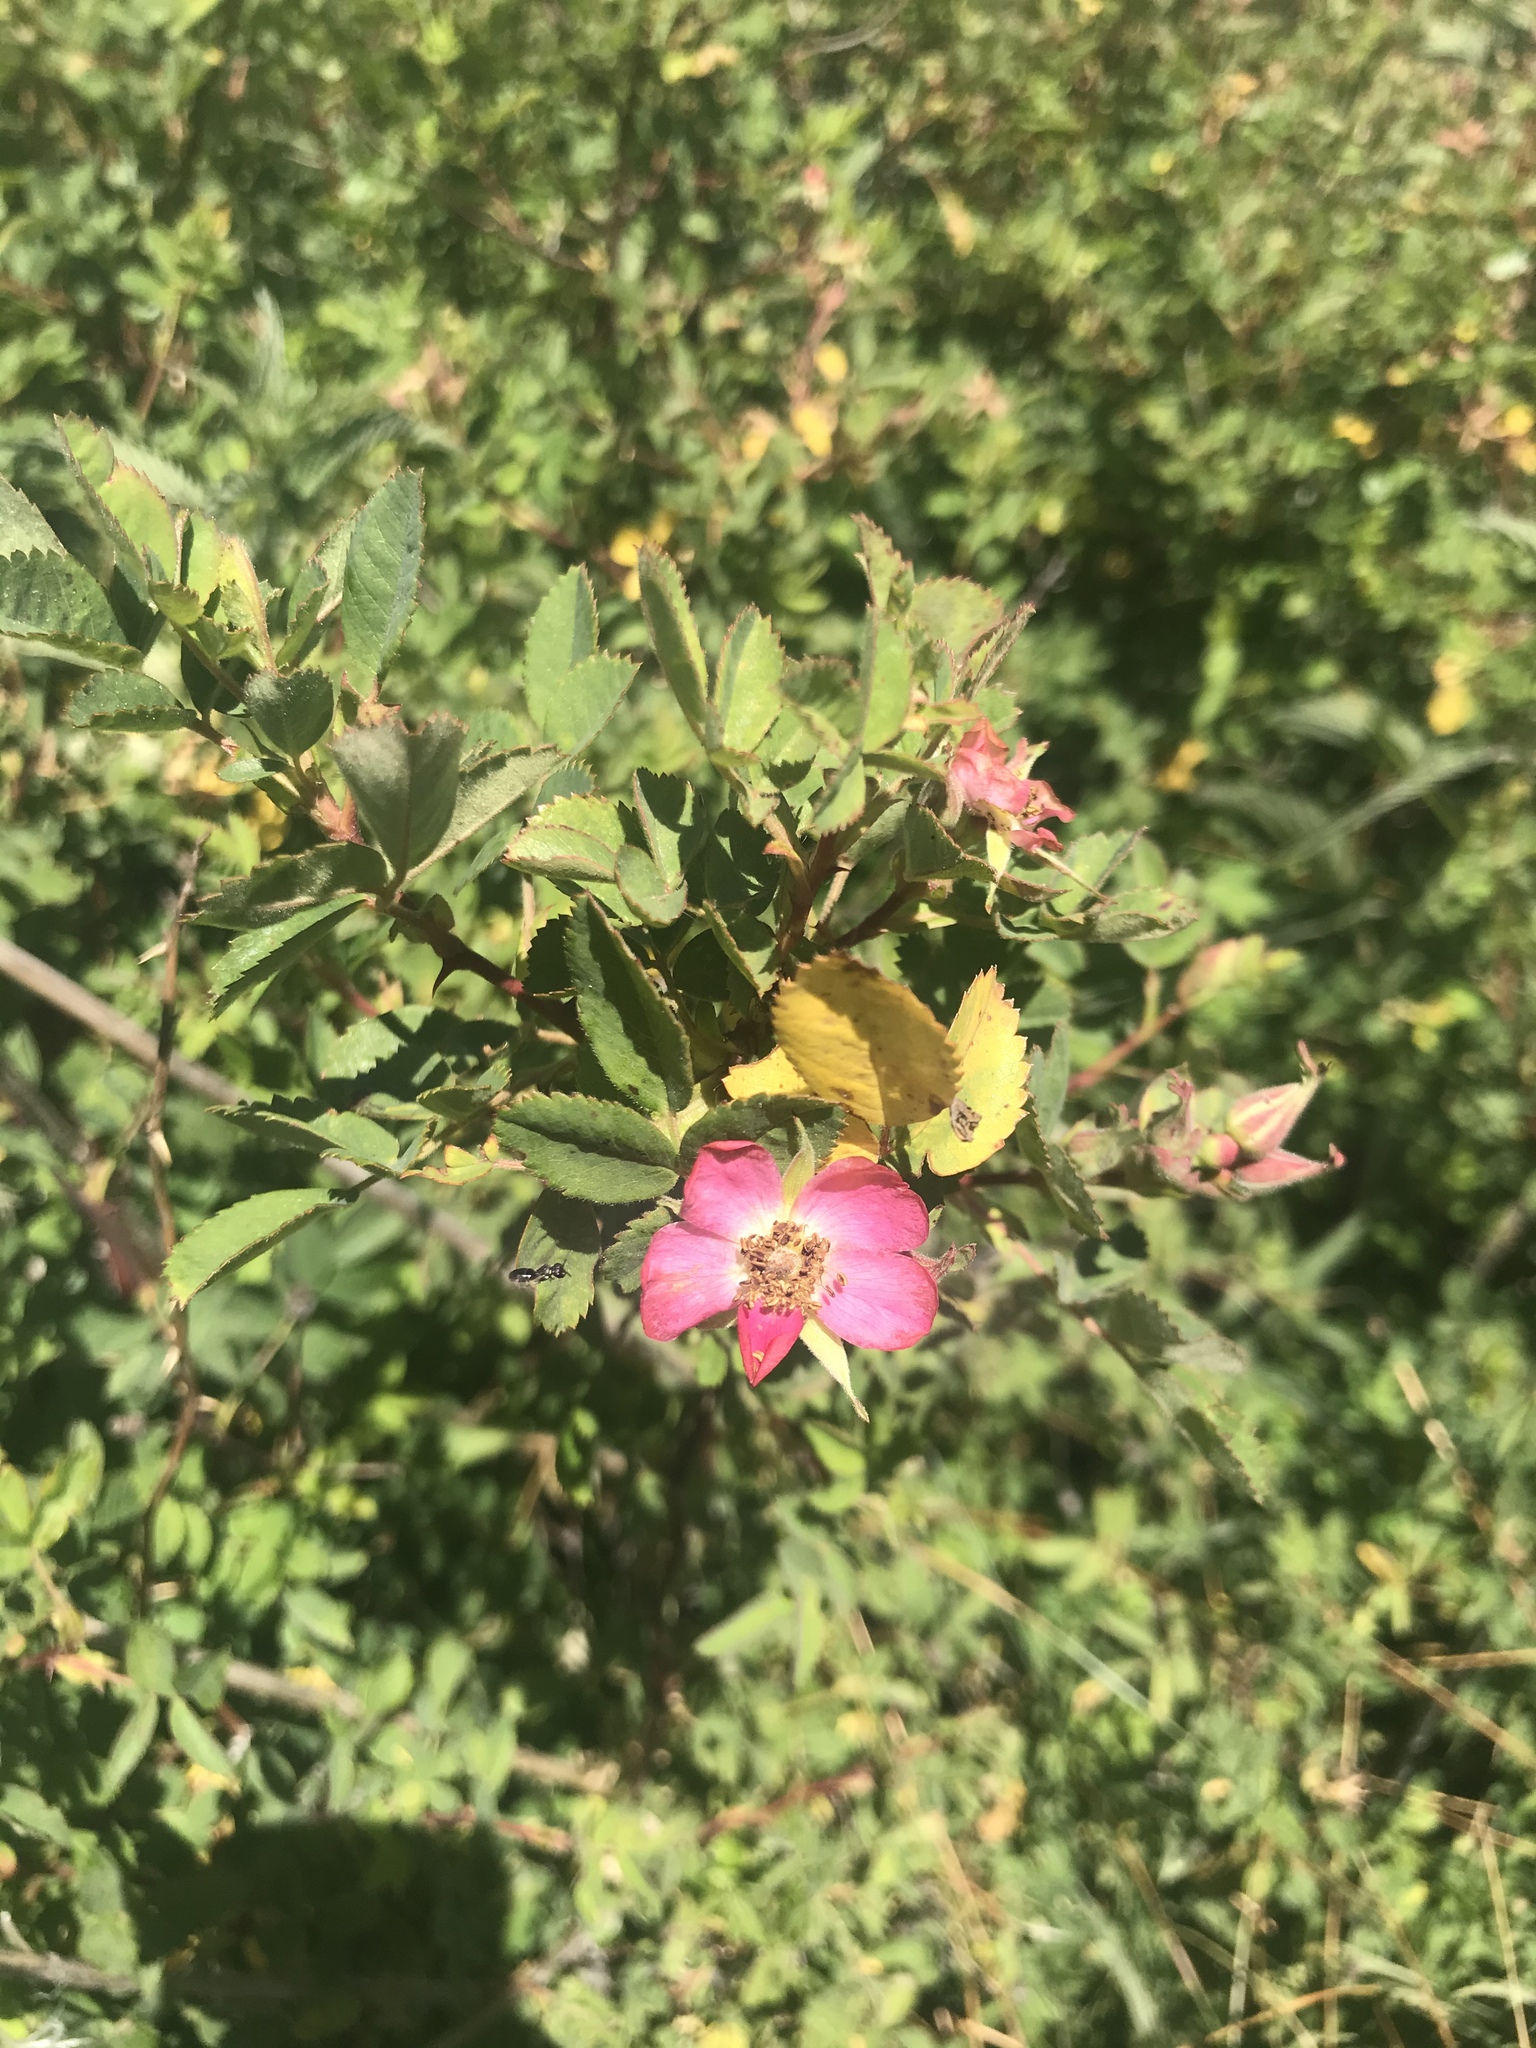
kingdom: Plantae
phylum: Tracheophyta
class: Magnoliopsida
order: Rosales
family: Rosaceae
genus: Rosa
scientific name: Rosa californica
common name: California rose
